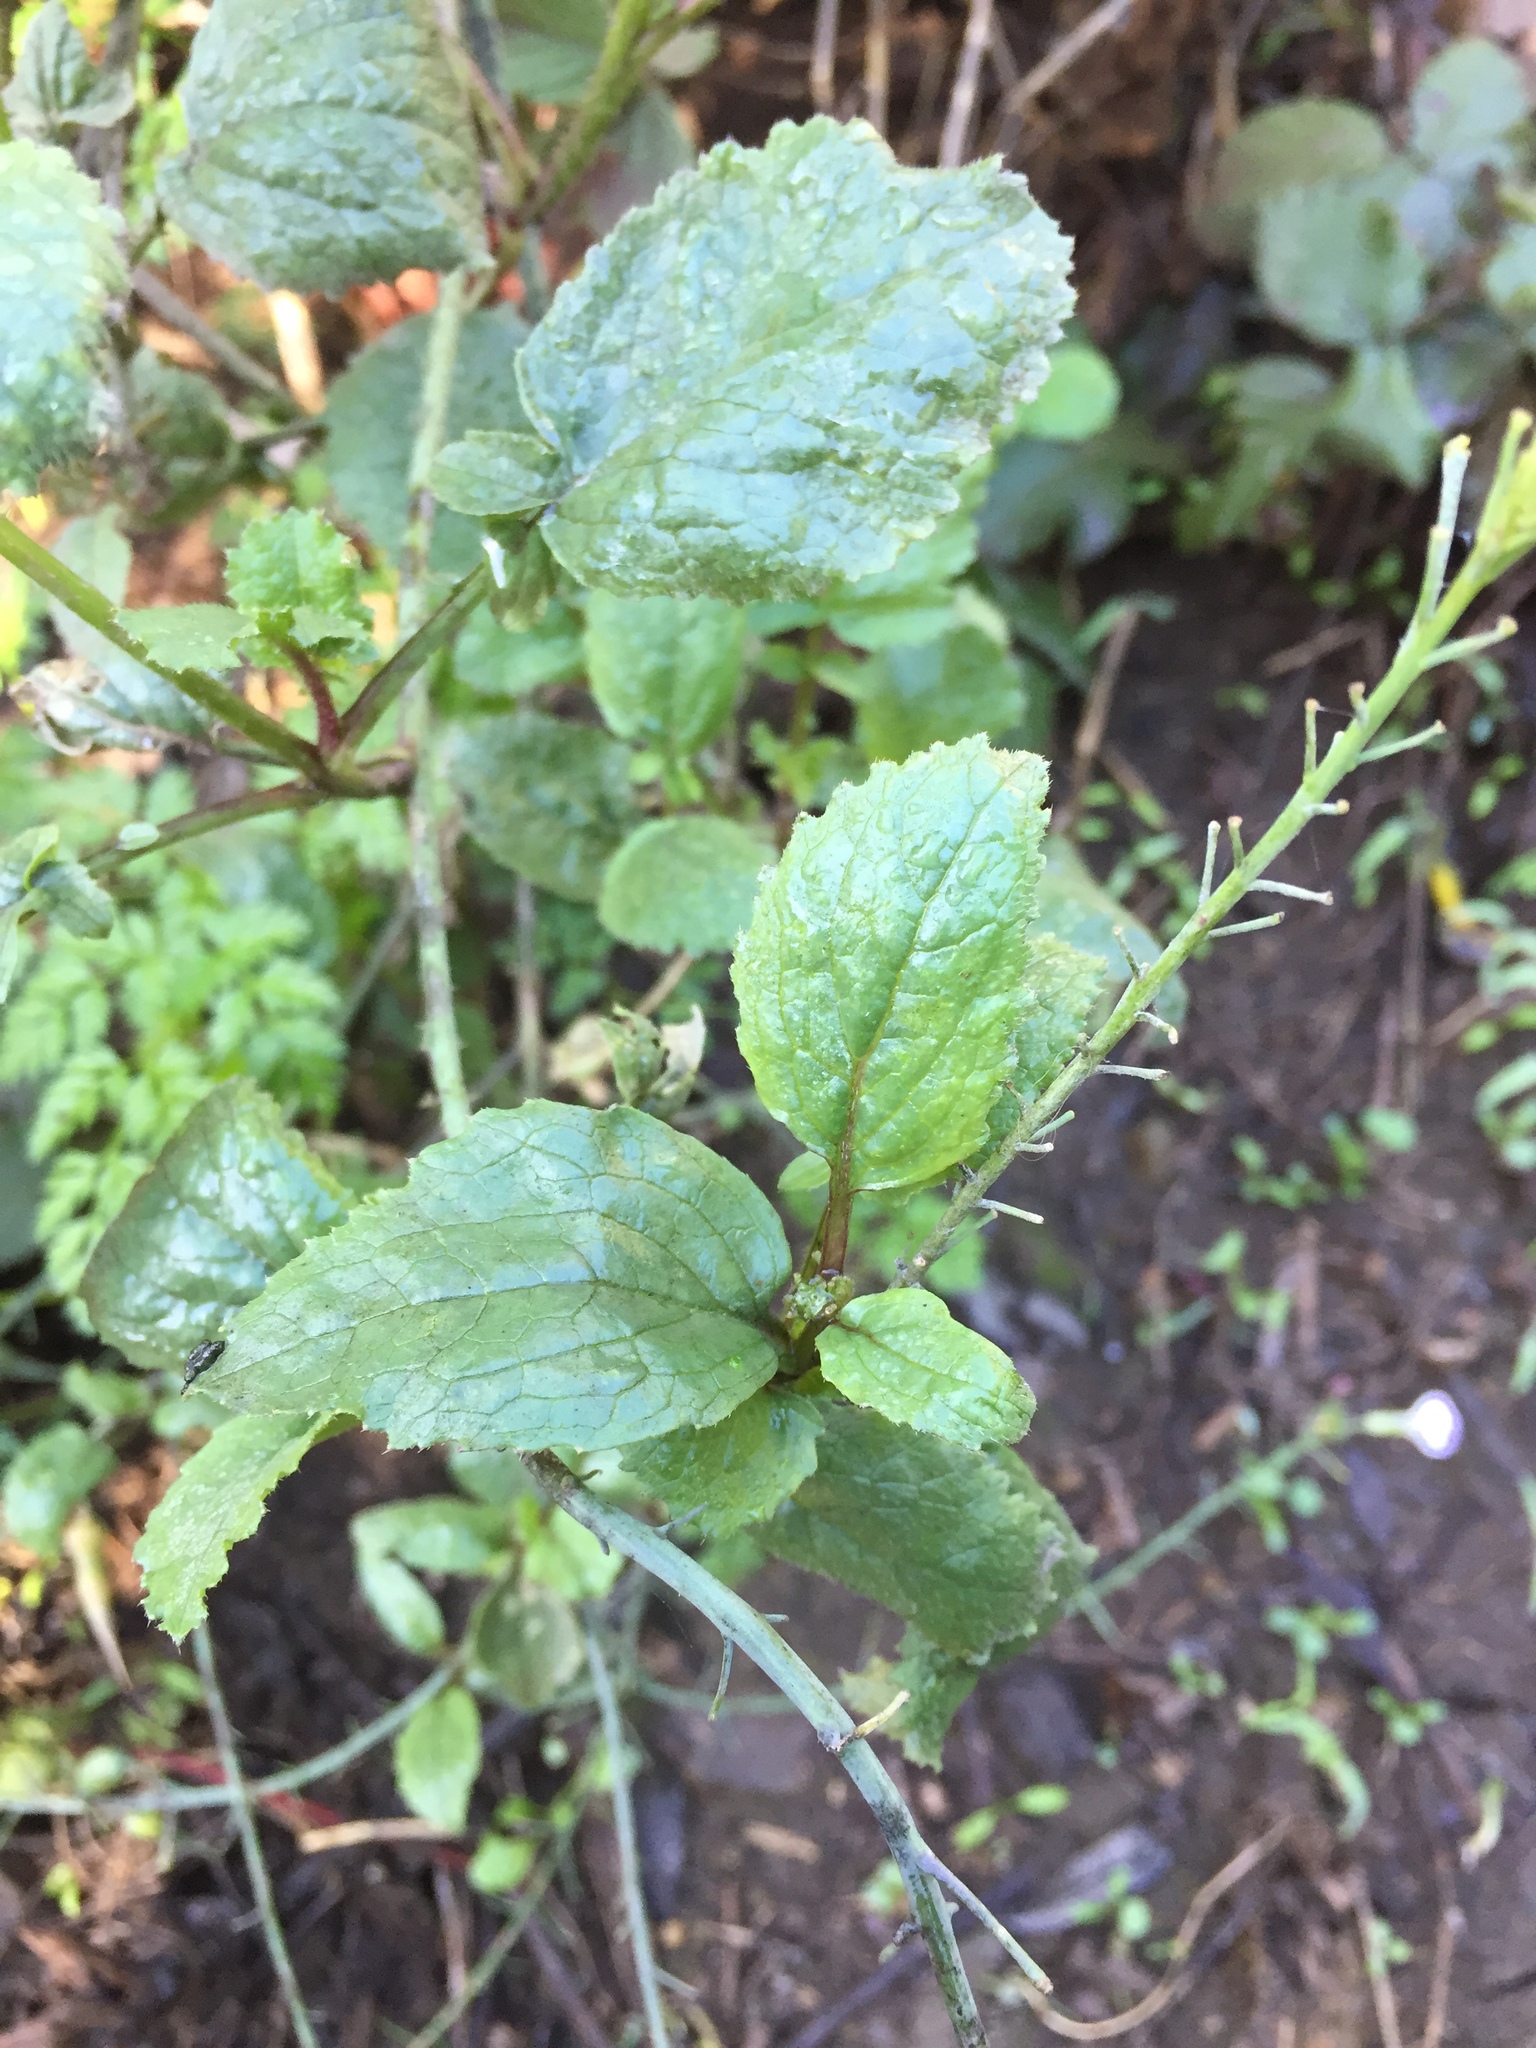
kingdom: Plantae
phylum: Tracheophyta
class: Magnoliopsida
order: Brassicales
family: Brassicaceae
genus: Raphanus
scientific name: Raphanus sativus
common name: Cultivated radish
